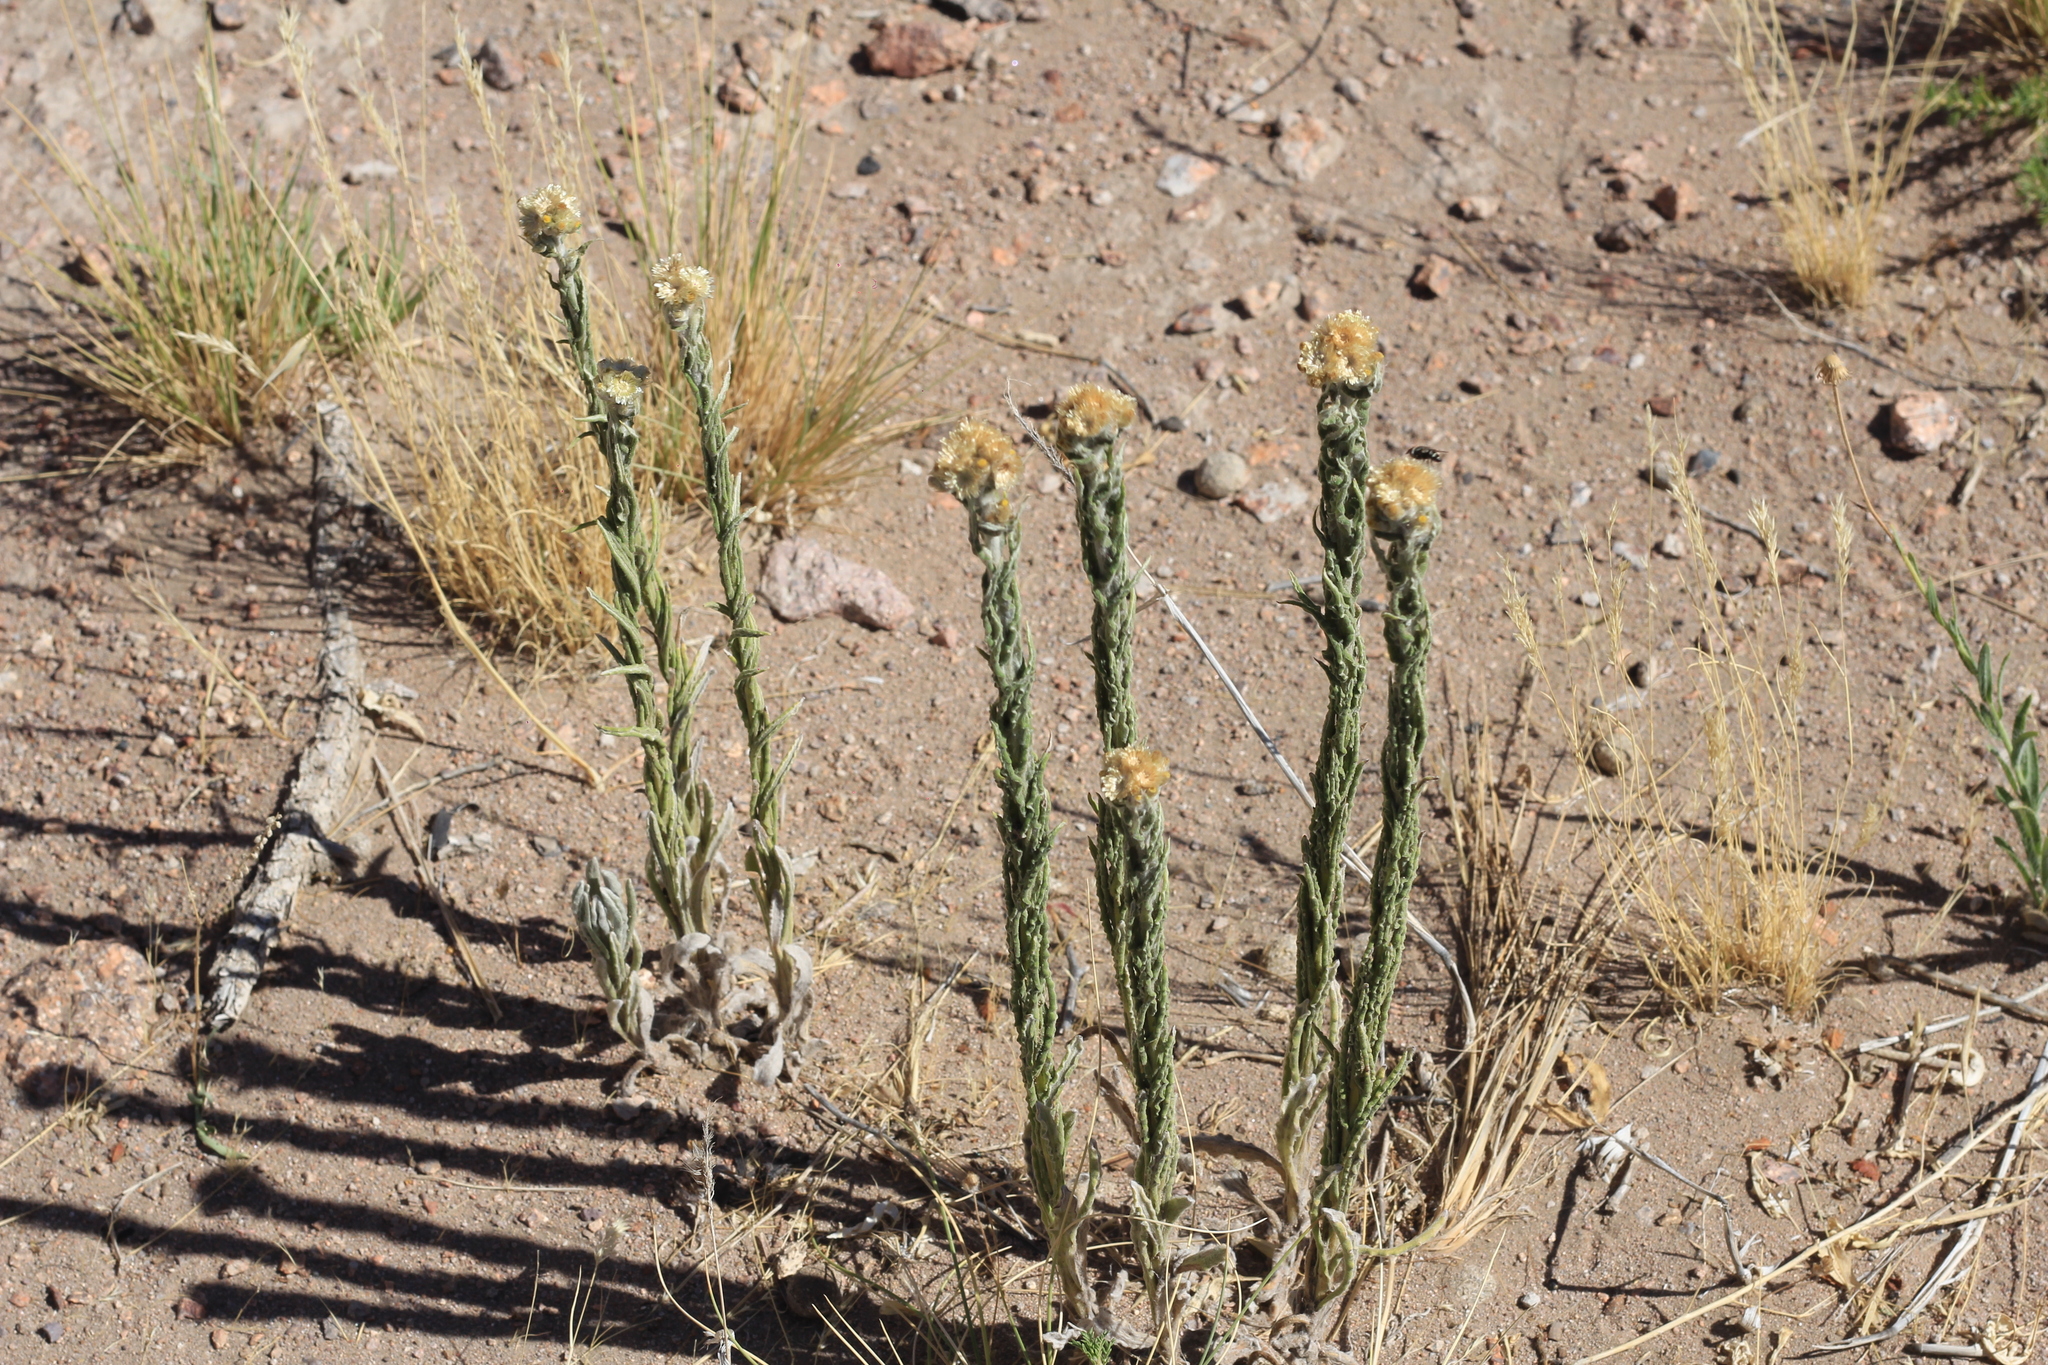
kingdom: Plantae
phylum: Tracheophyta
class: Magnoliopsida
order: Asterales
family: Asteraceae
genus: Pseudognaphalium
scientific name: Pseudognaphalium psilophyllum
